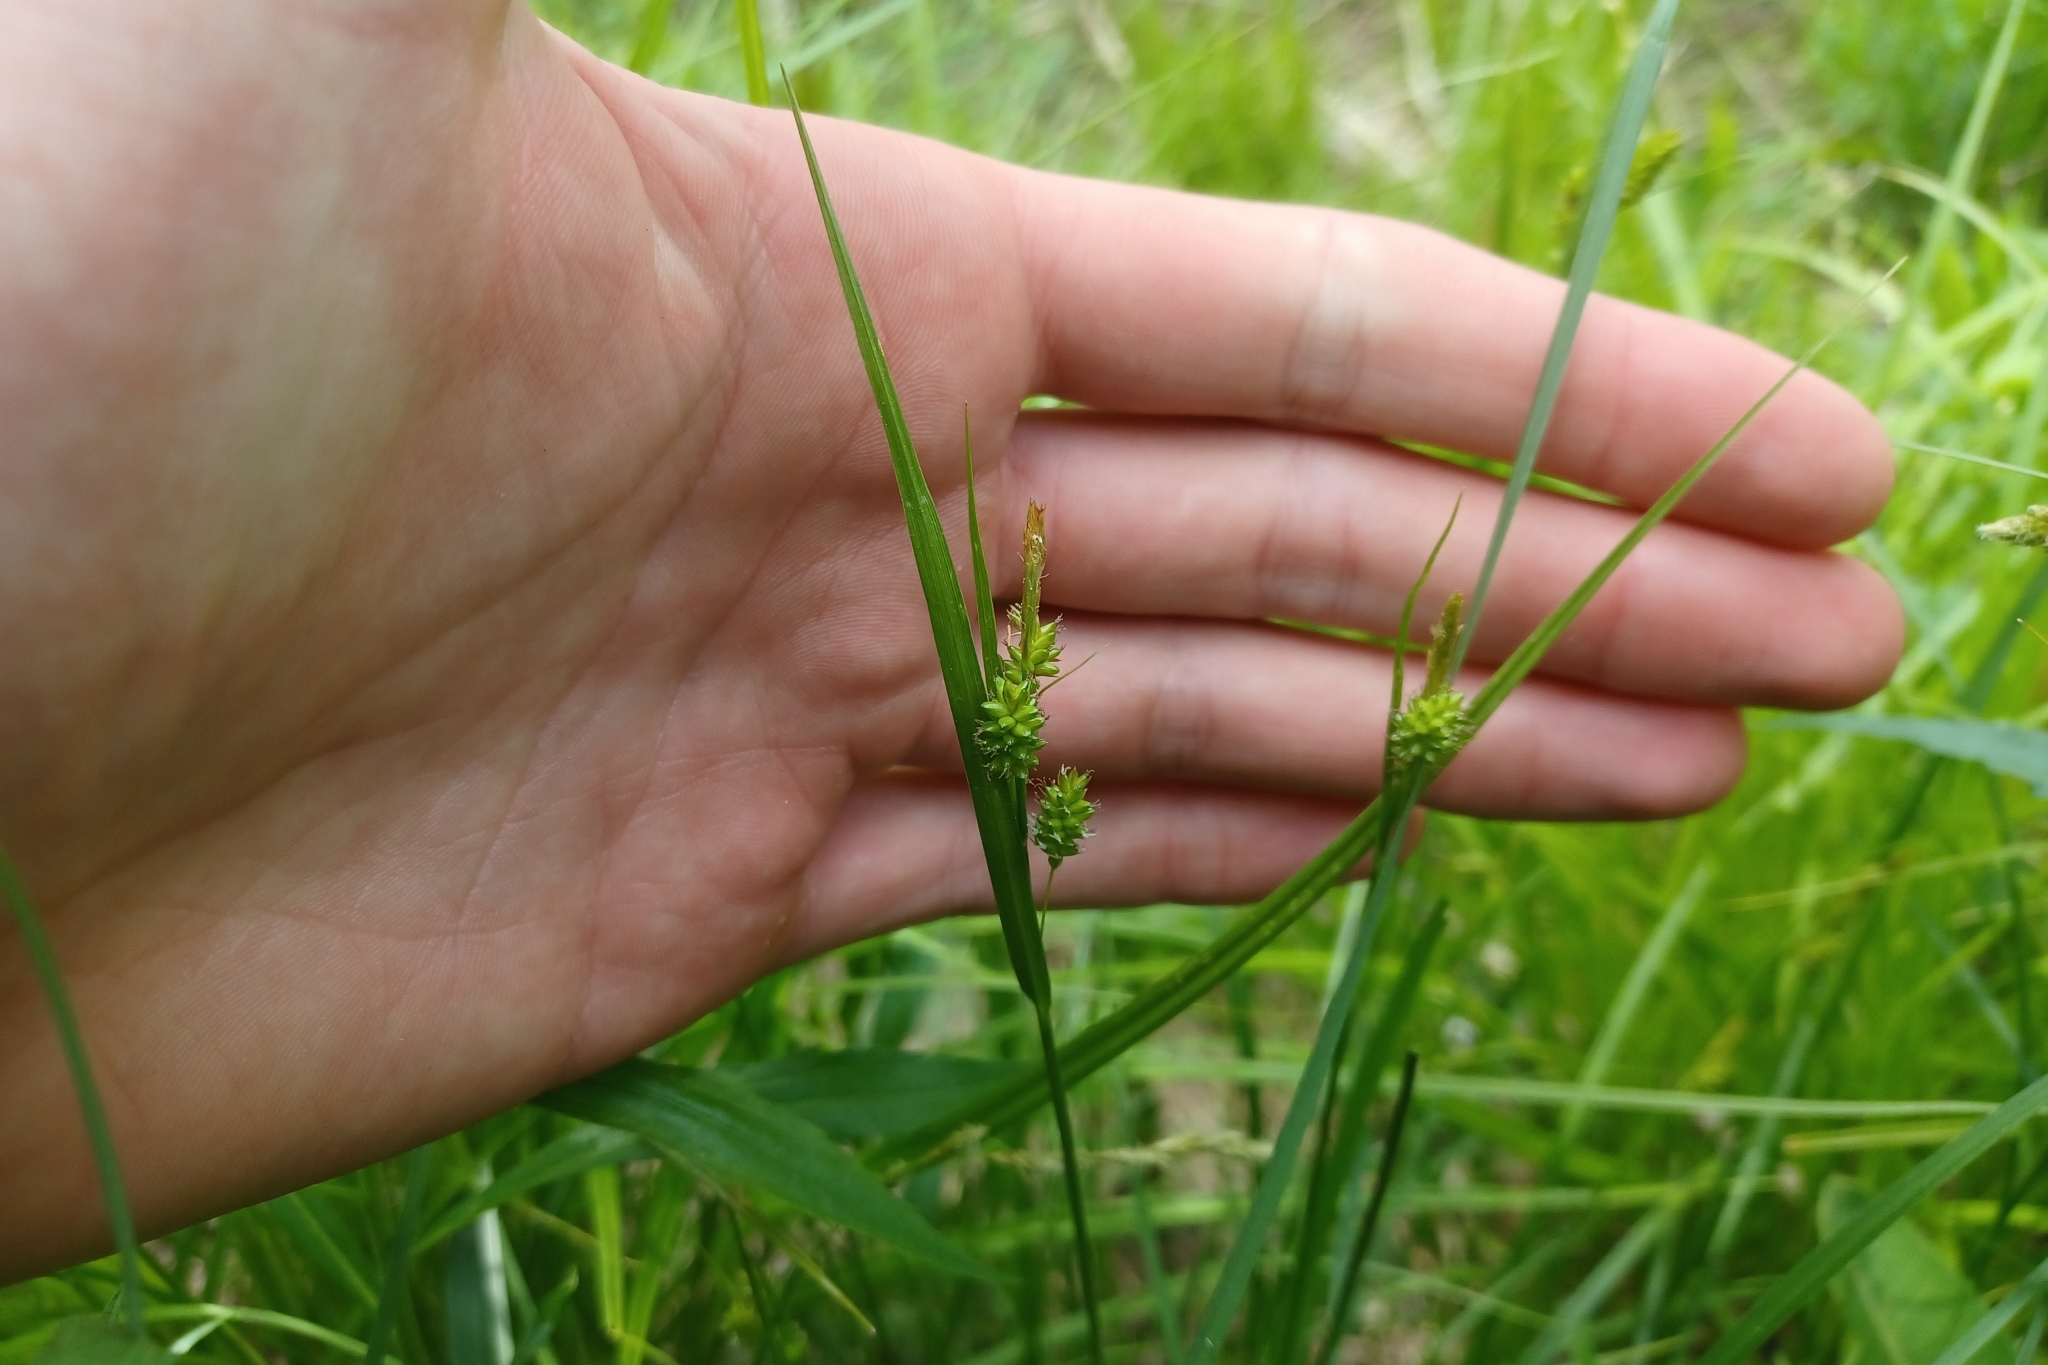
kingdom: Plantae
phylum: Tracheophyta
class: Liliopsida
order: Poales
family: Cyperaceae
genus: Carex
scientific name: Carex pallescens
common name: Pale sedge
